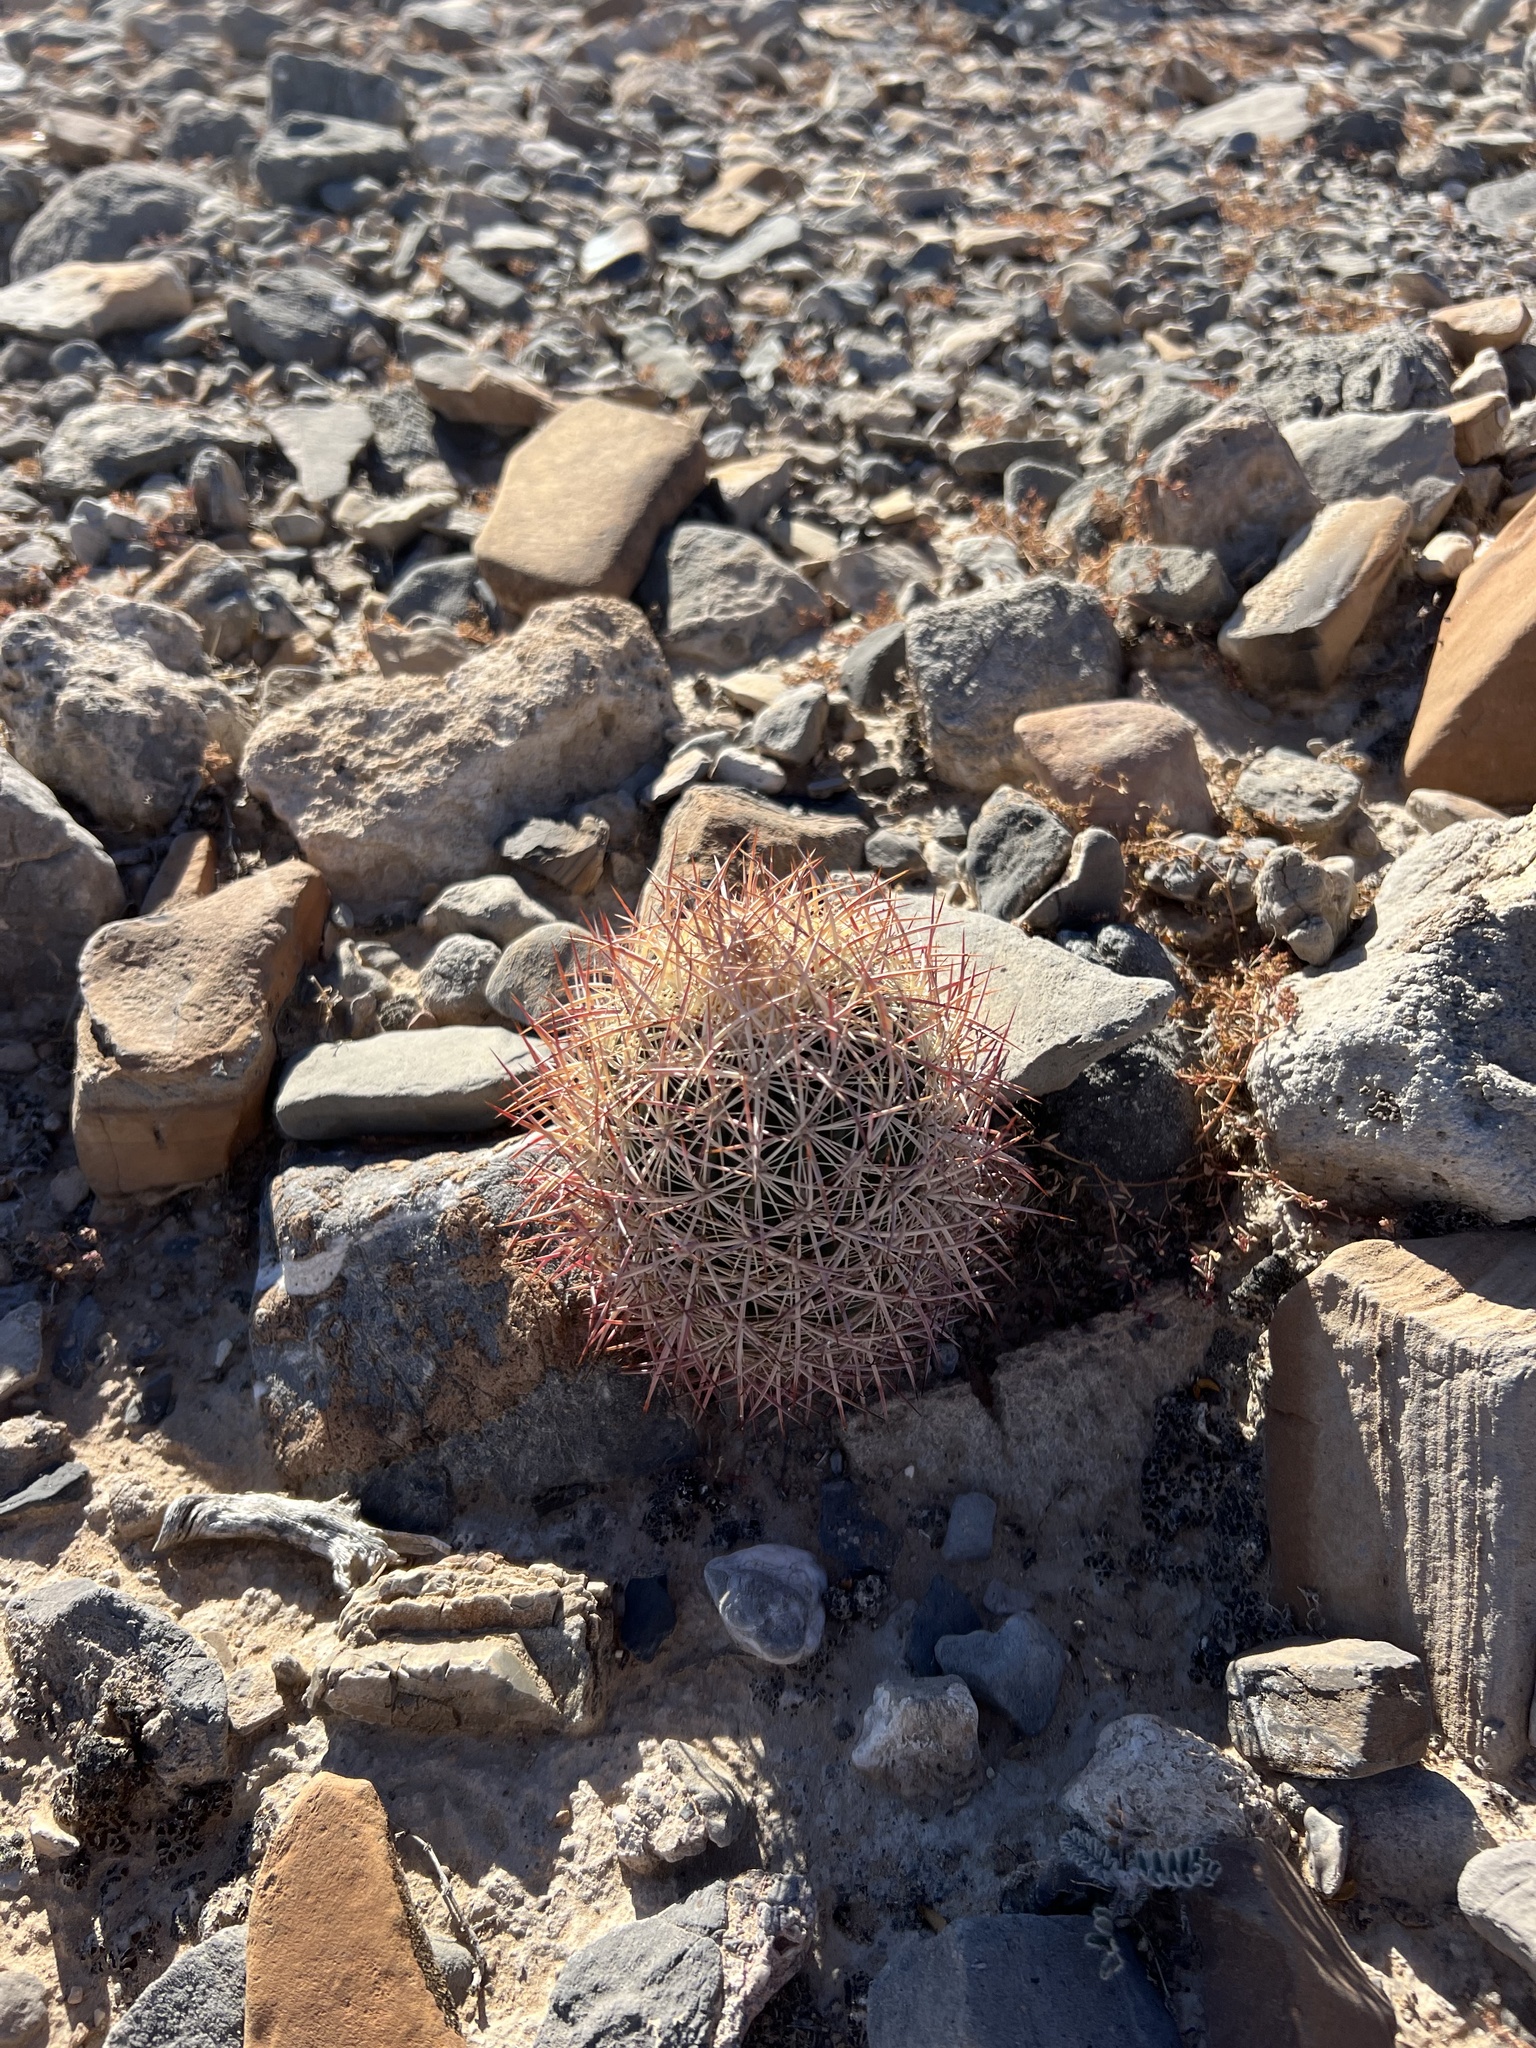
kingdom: Plantae
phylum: Tracheophyta
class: Magnoliopsida
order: Caryophyllales
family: Cactaceae
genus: Sclerocactus
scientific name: Sclerocactus johnsonii
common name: Eight-spine fishhook cactus
